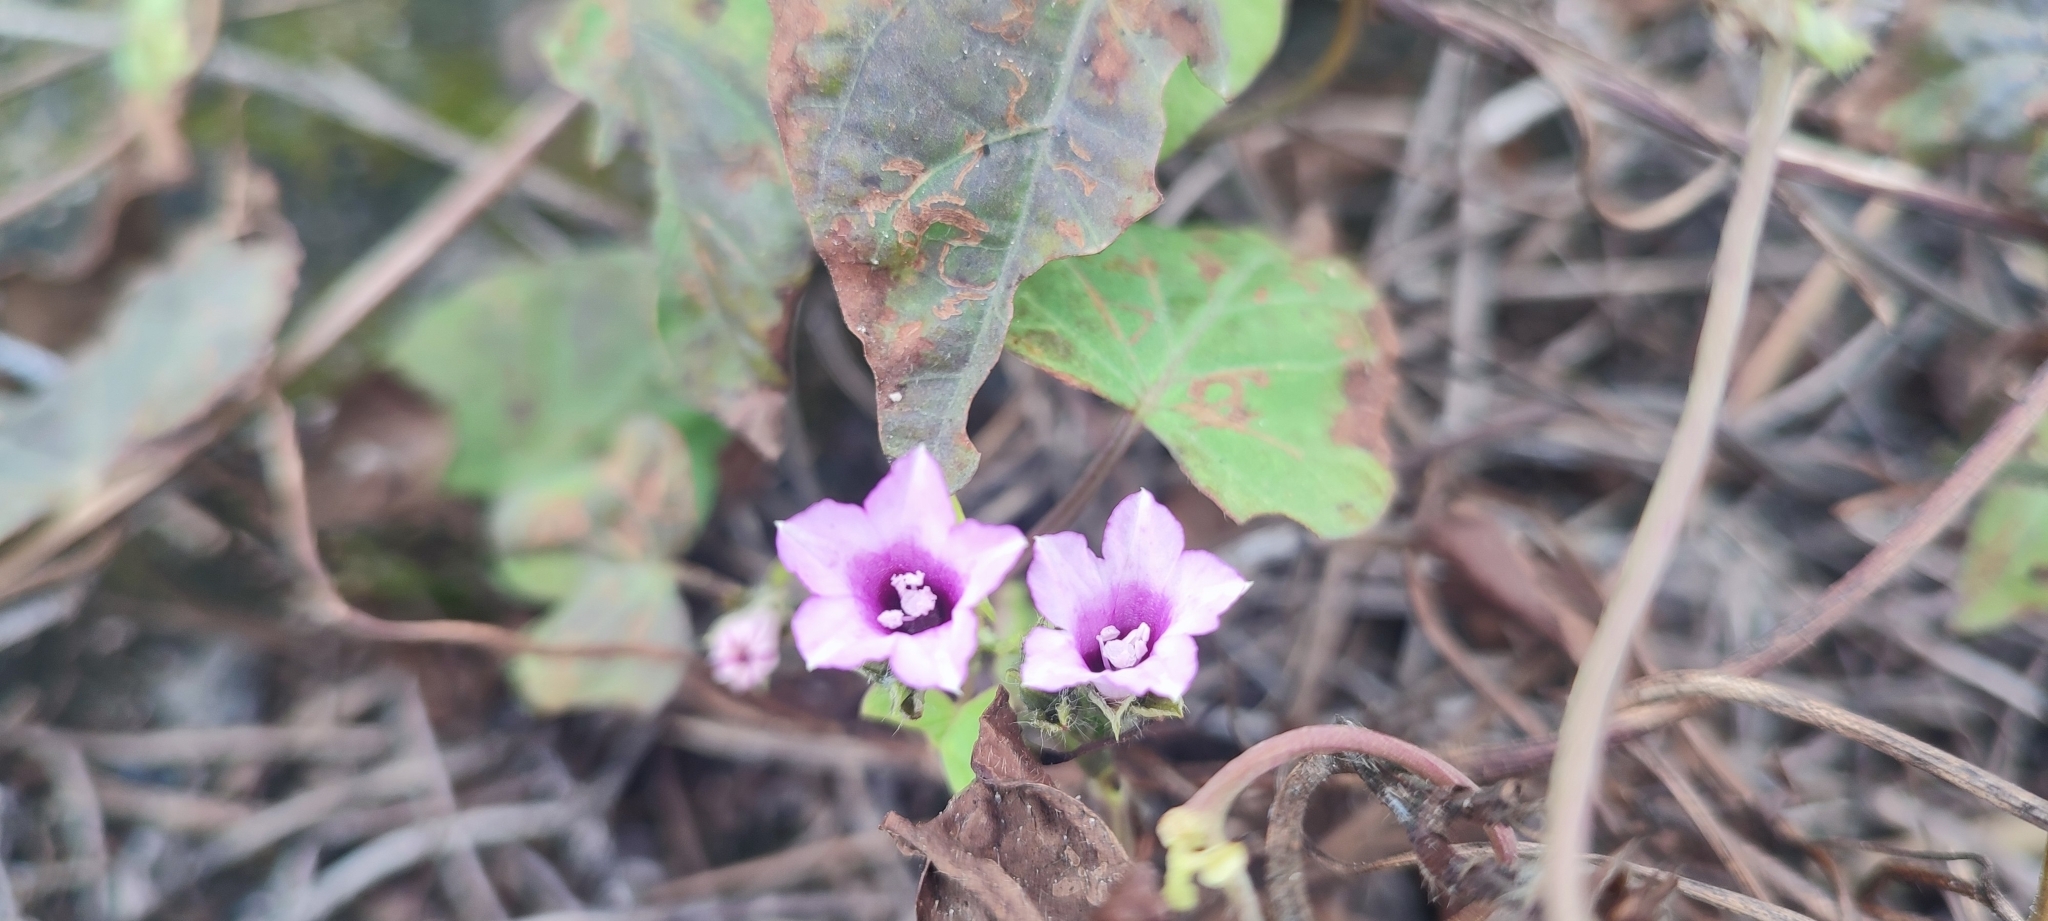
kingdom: Plantae
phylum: Tracheophyta
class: Magnoliopsida
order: Solanales
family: Convolvulaceae
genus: Ipomoea
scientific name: Ipomoea triloba
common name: Little-bell
